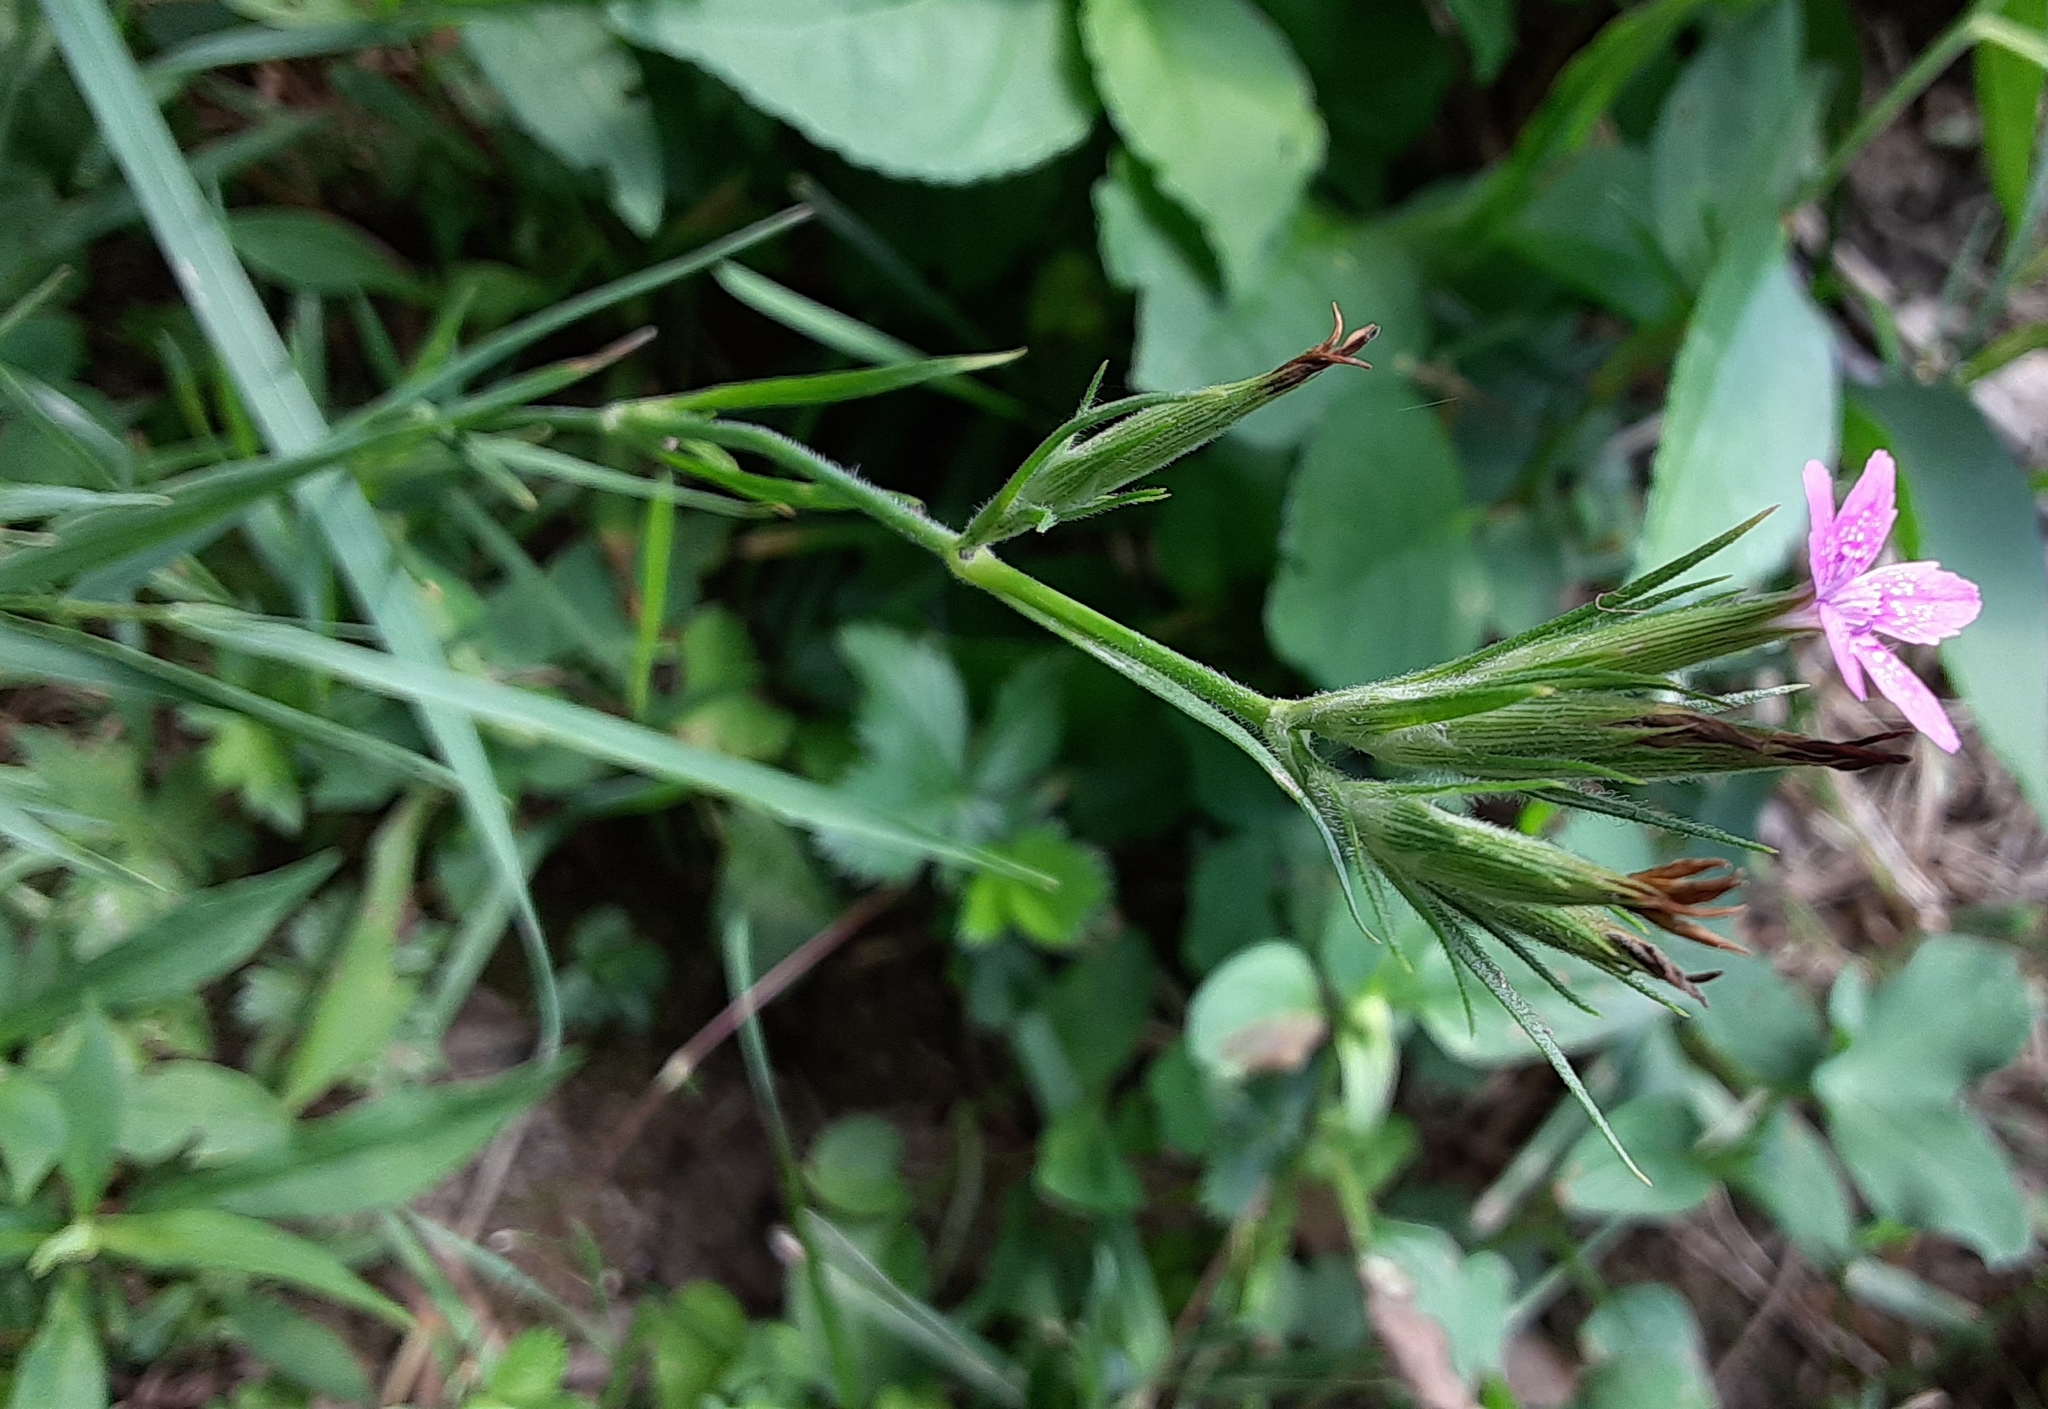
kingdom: Plantae
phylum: Tracheophyta
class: Magnoliopsida
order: Caryophyllales
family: Caryophyllaceae
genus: Dianthus
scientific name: Dianthus armeria
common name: Deptford pink
